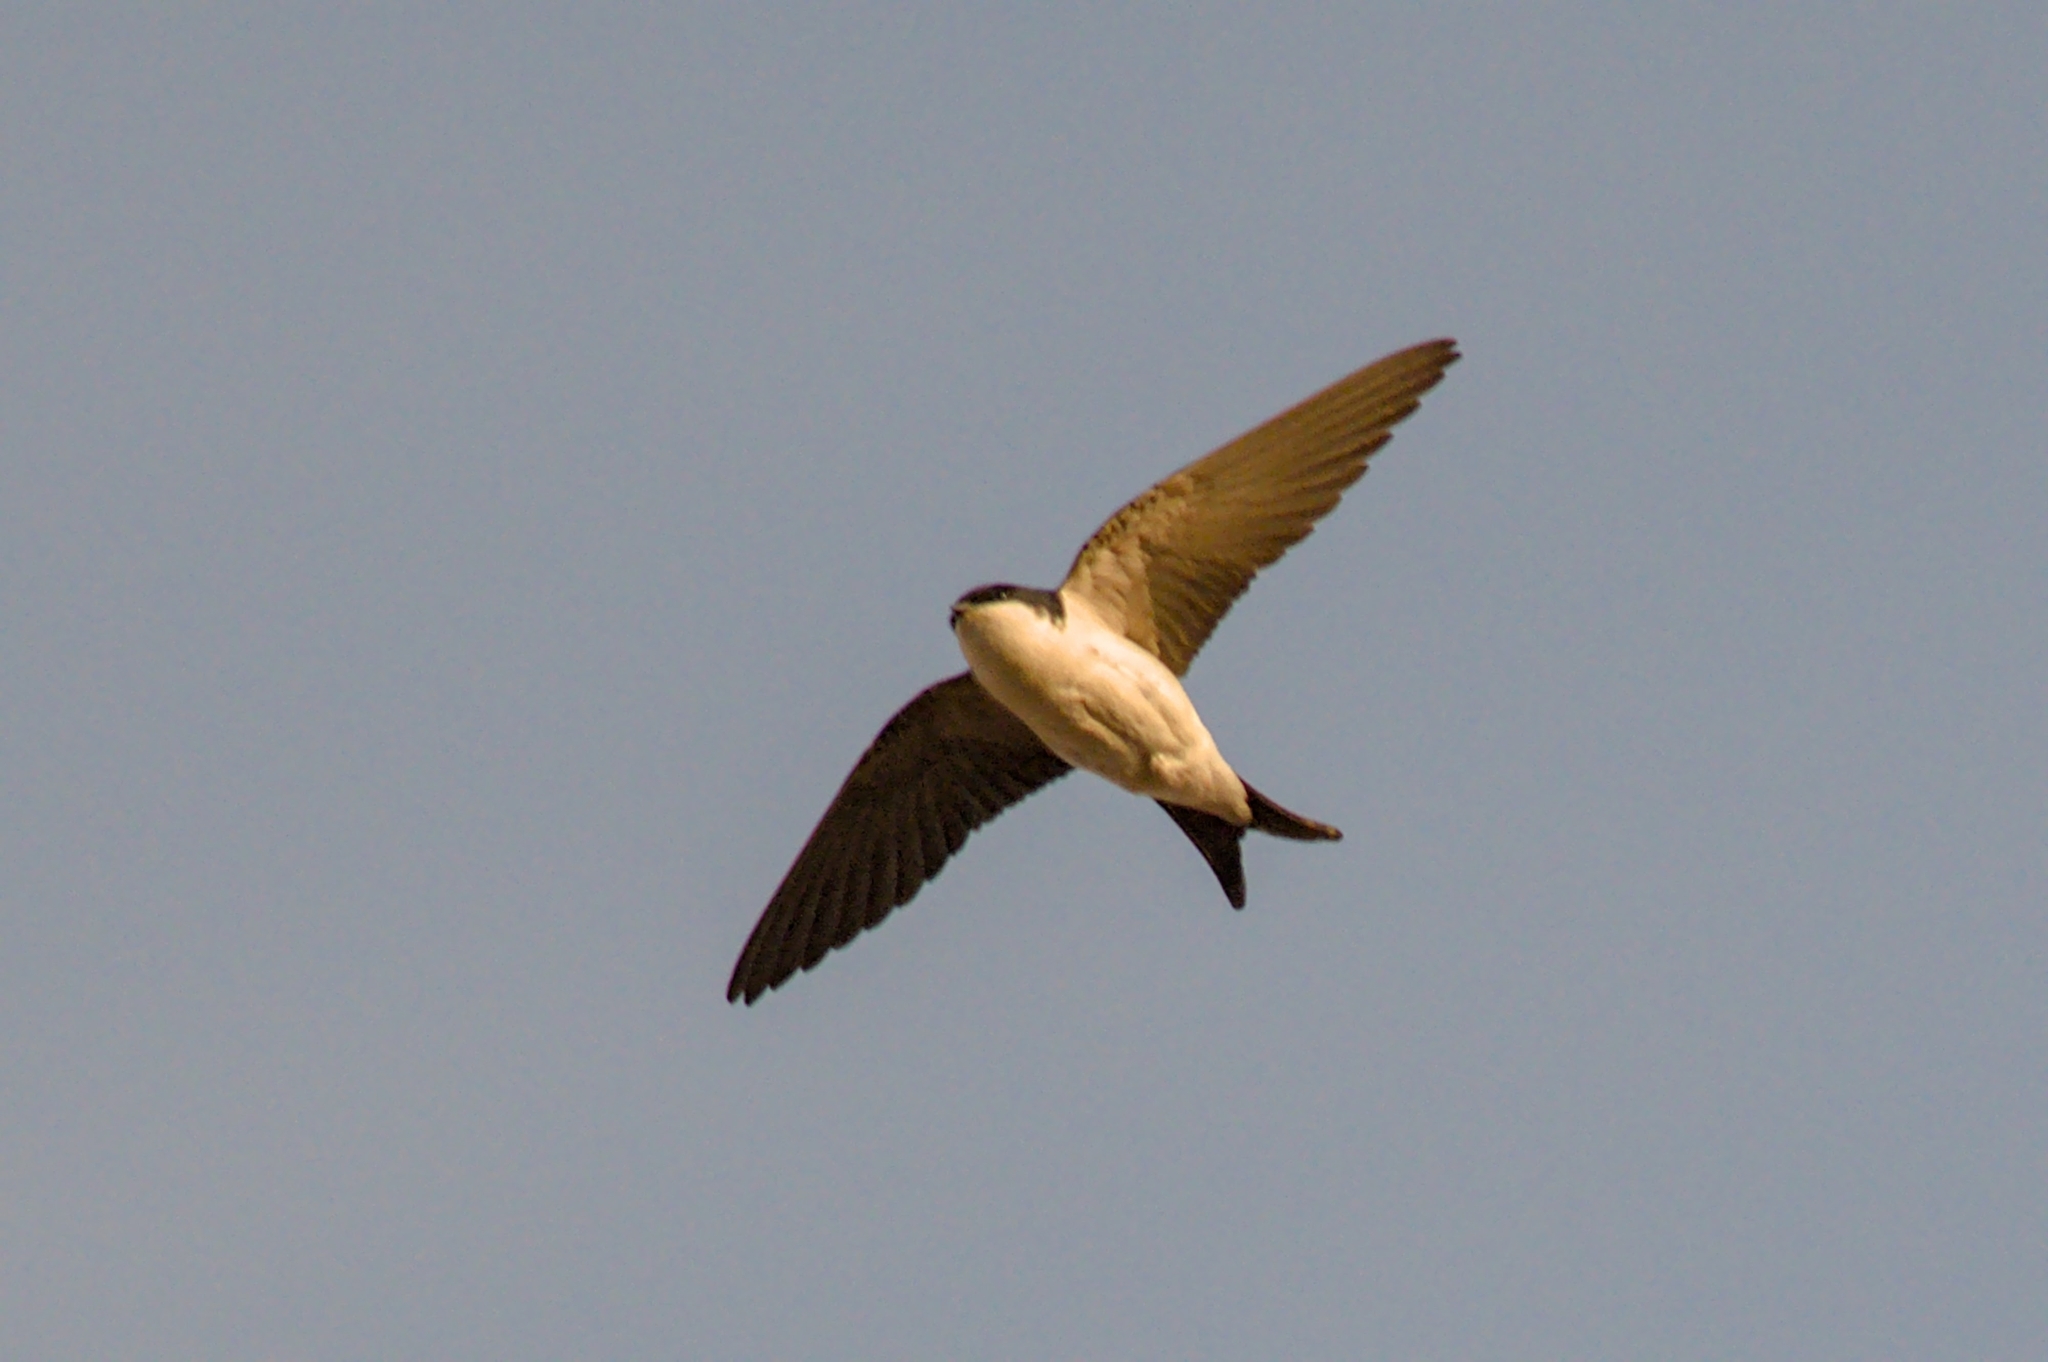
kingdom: Animalia
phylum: Chordata
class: Aves
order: Passeriformes
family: Hirundinidae
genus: Delichon
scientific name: Delichon urbicum
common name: Common house martin
